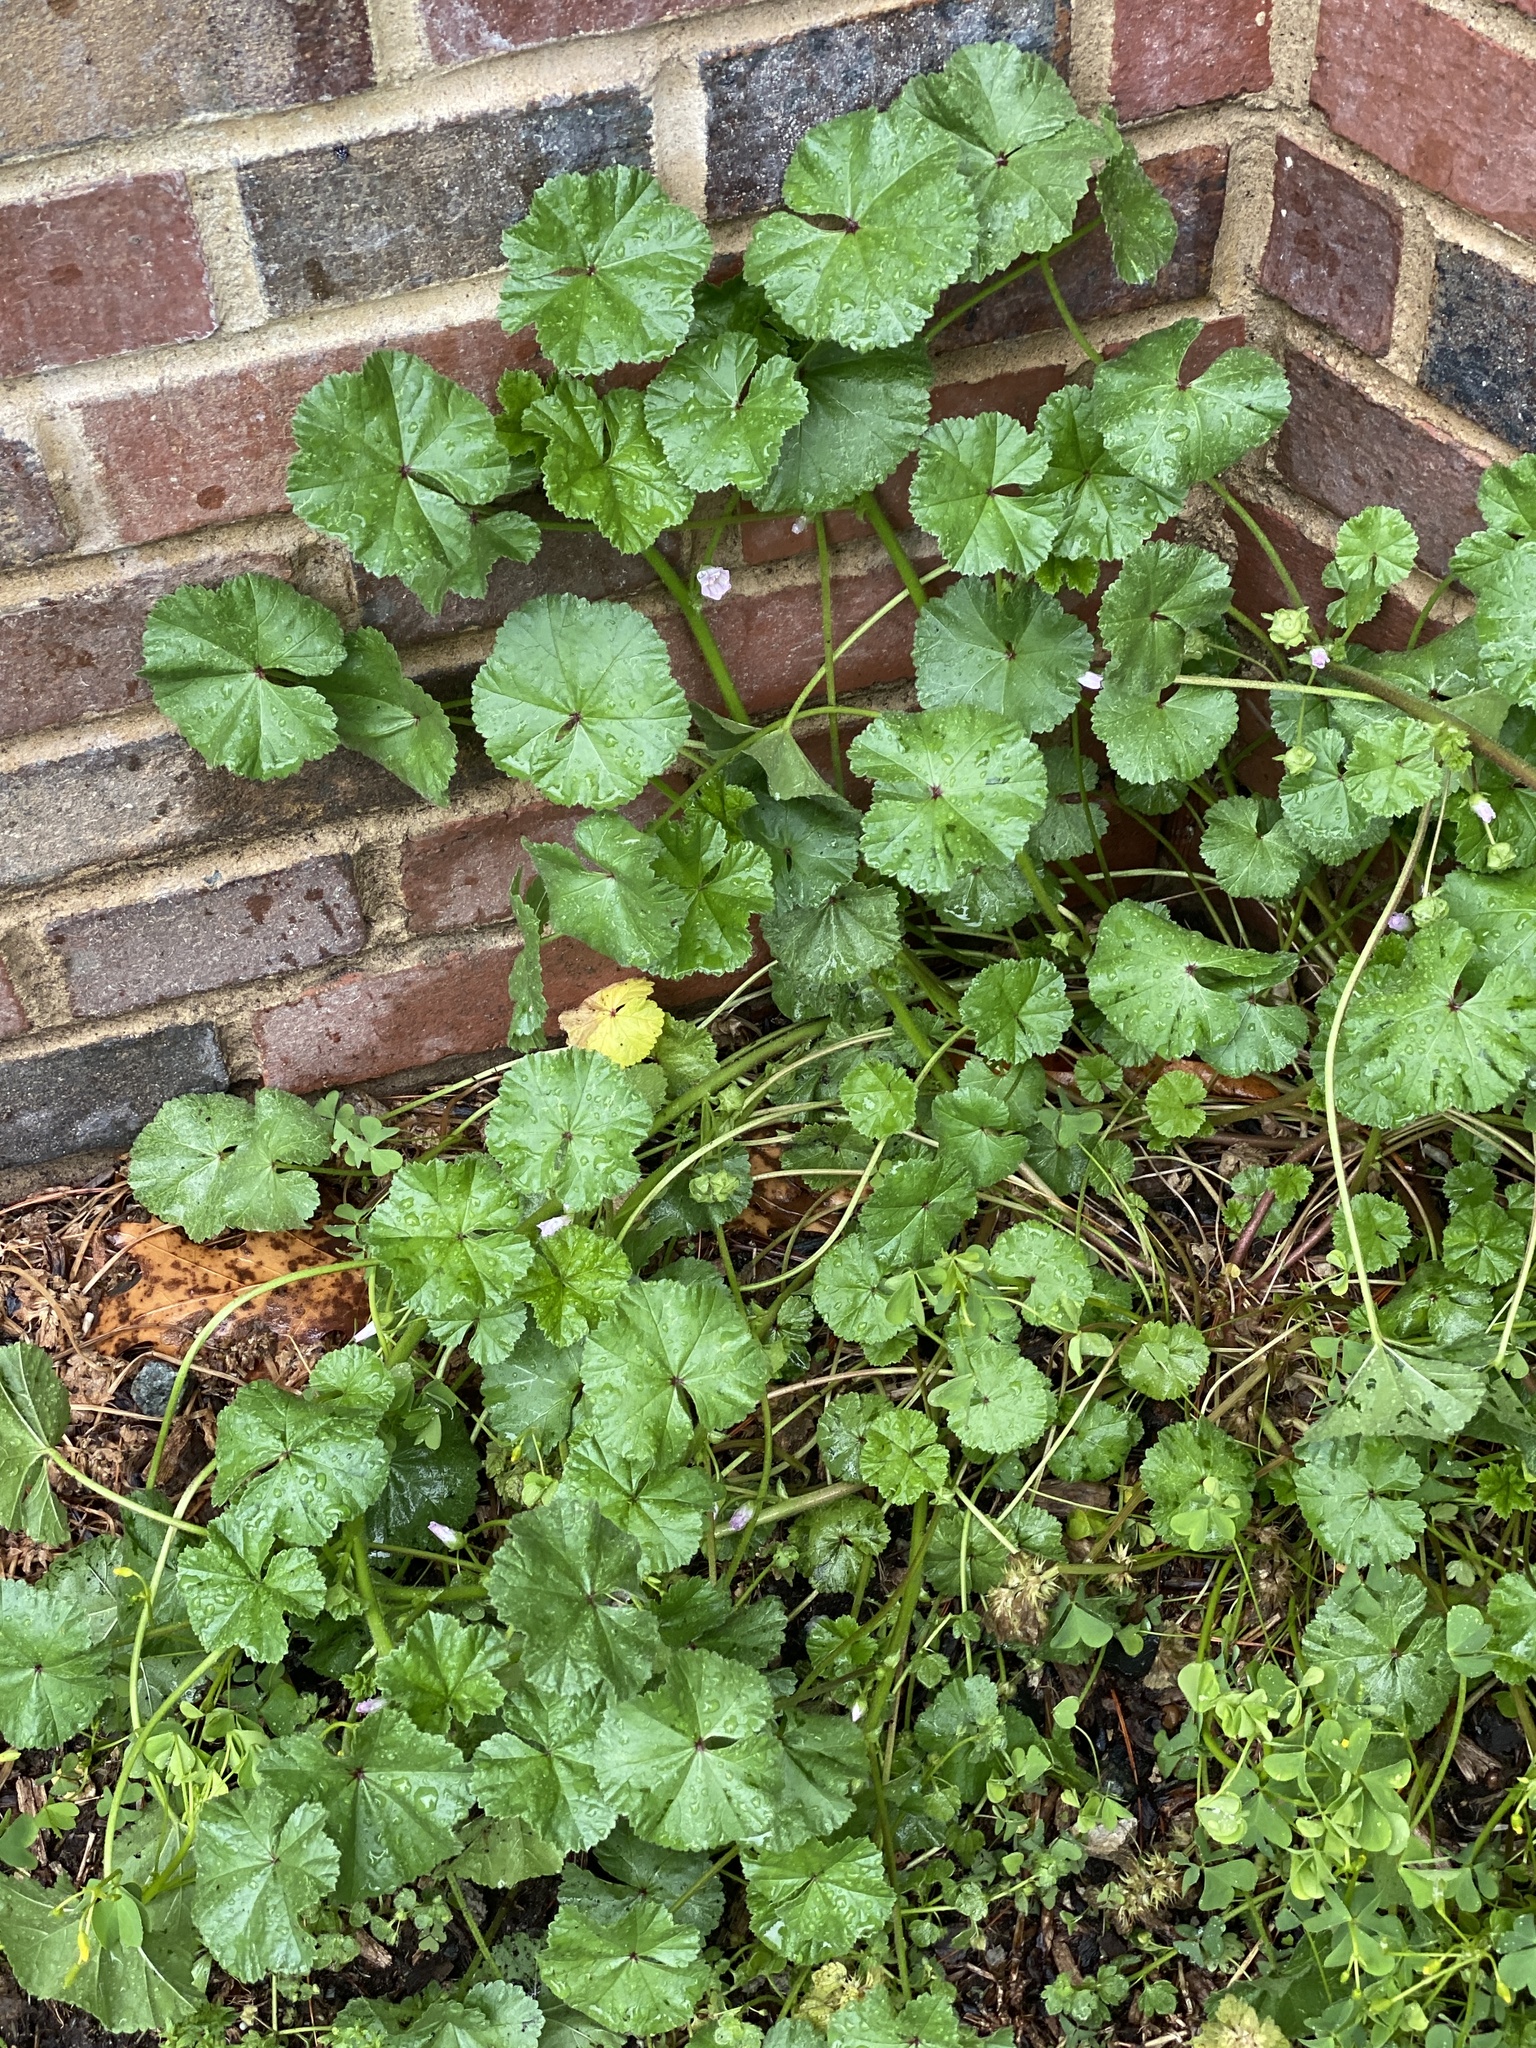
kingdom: Plantae
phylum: Tracheophyta
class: Magnoliopsida
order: Malvales
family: Malvaceae
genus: Malva
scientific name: Malva neglecta
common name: Common mallow
